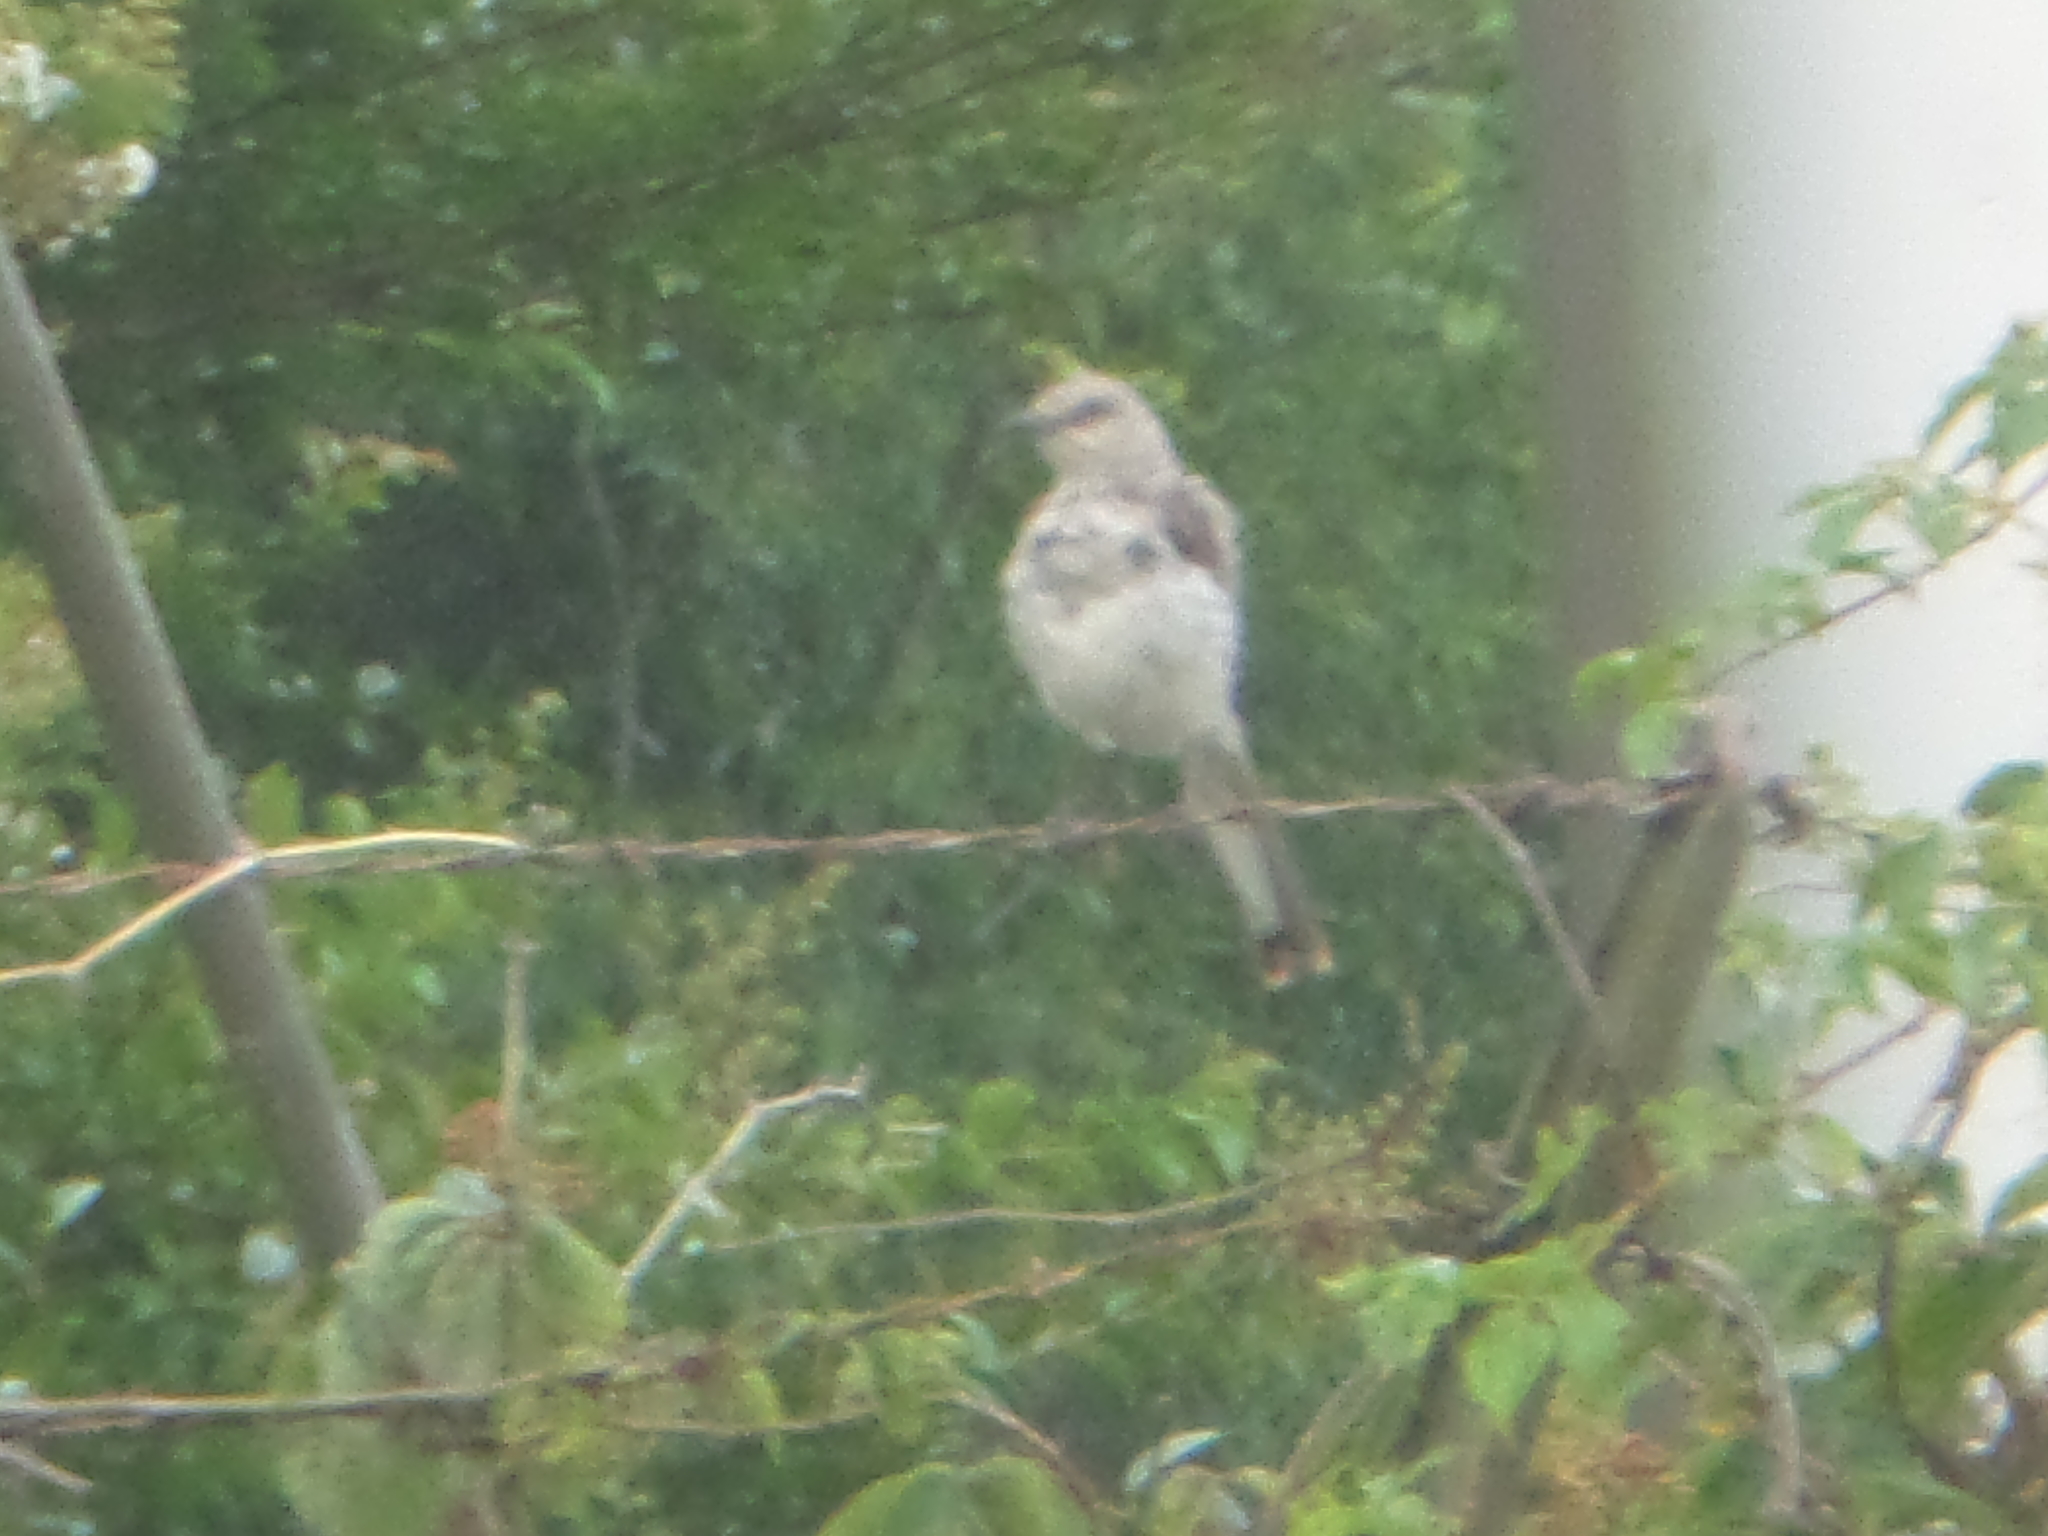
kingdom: Animalia
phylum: Chordata
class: Aves
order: Passeriformes
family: Mimidae
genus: Mimus
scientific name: Mimus polyglottos
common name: Northern mockingbird
